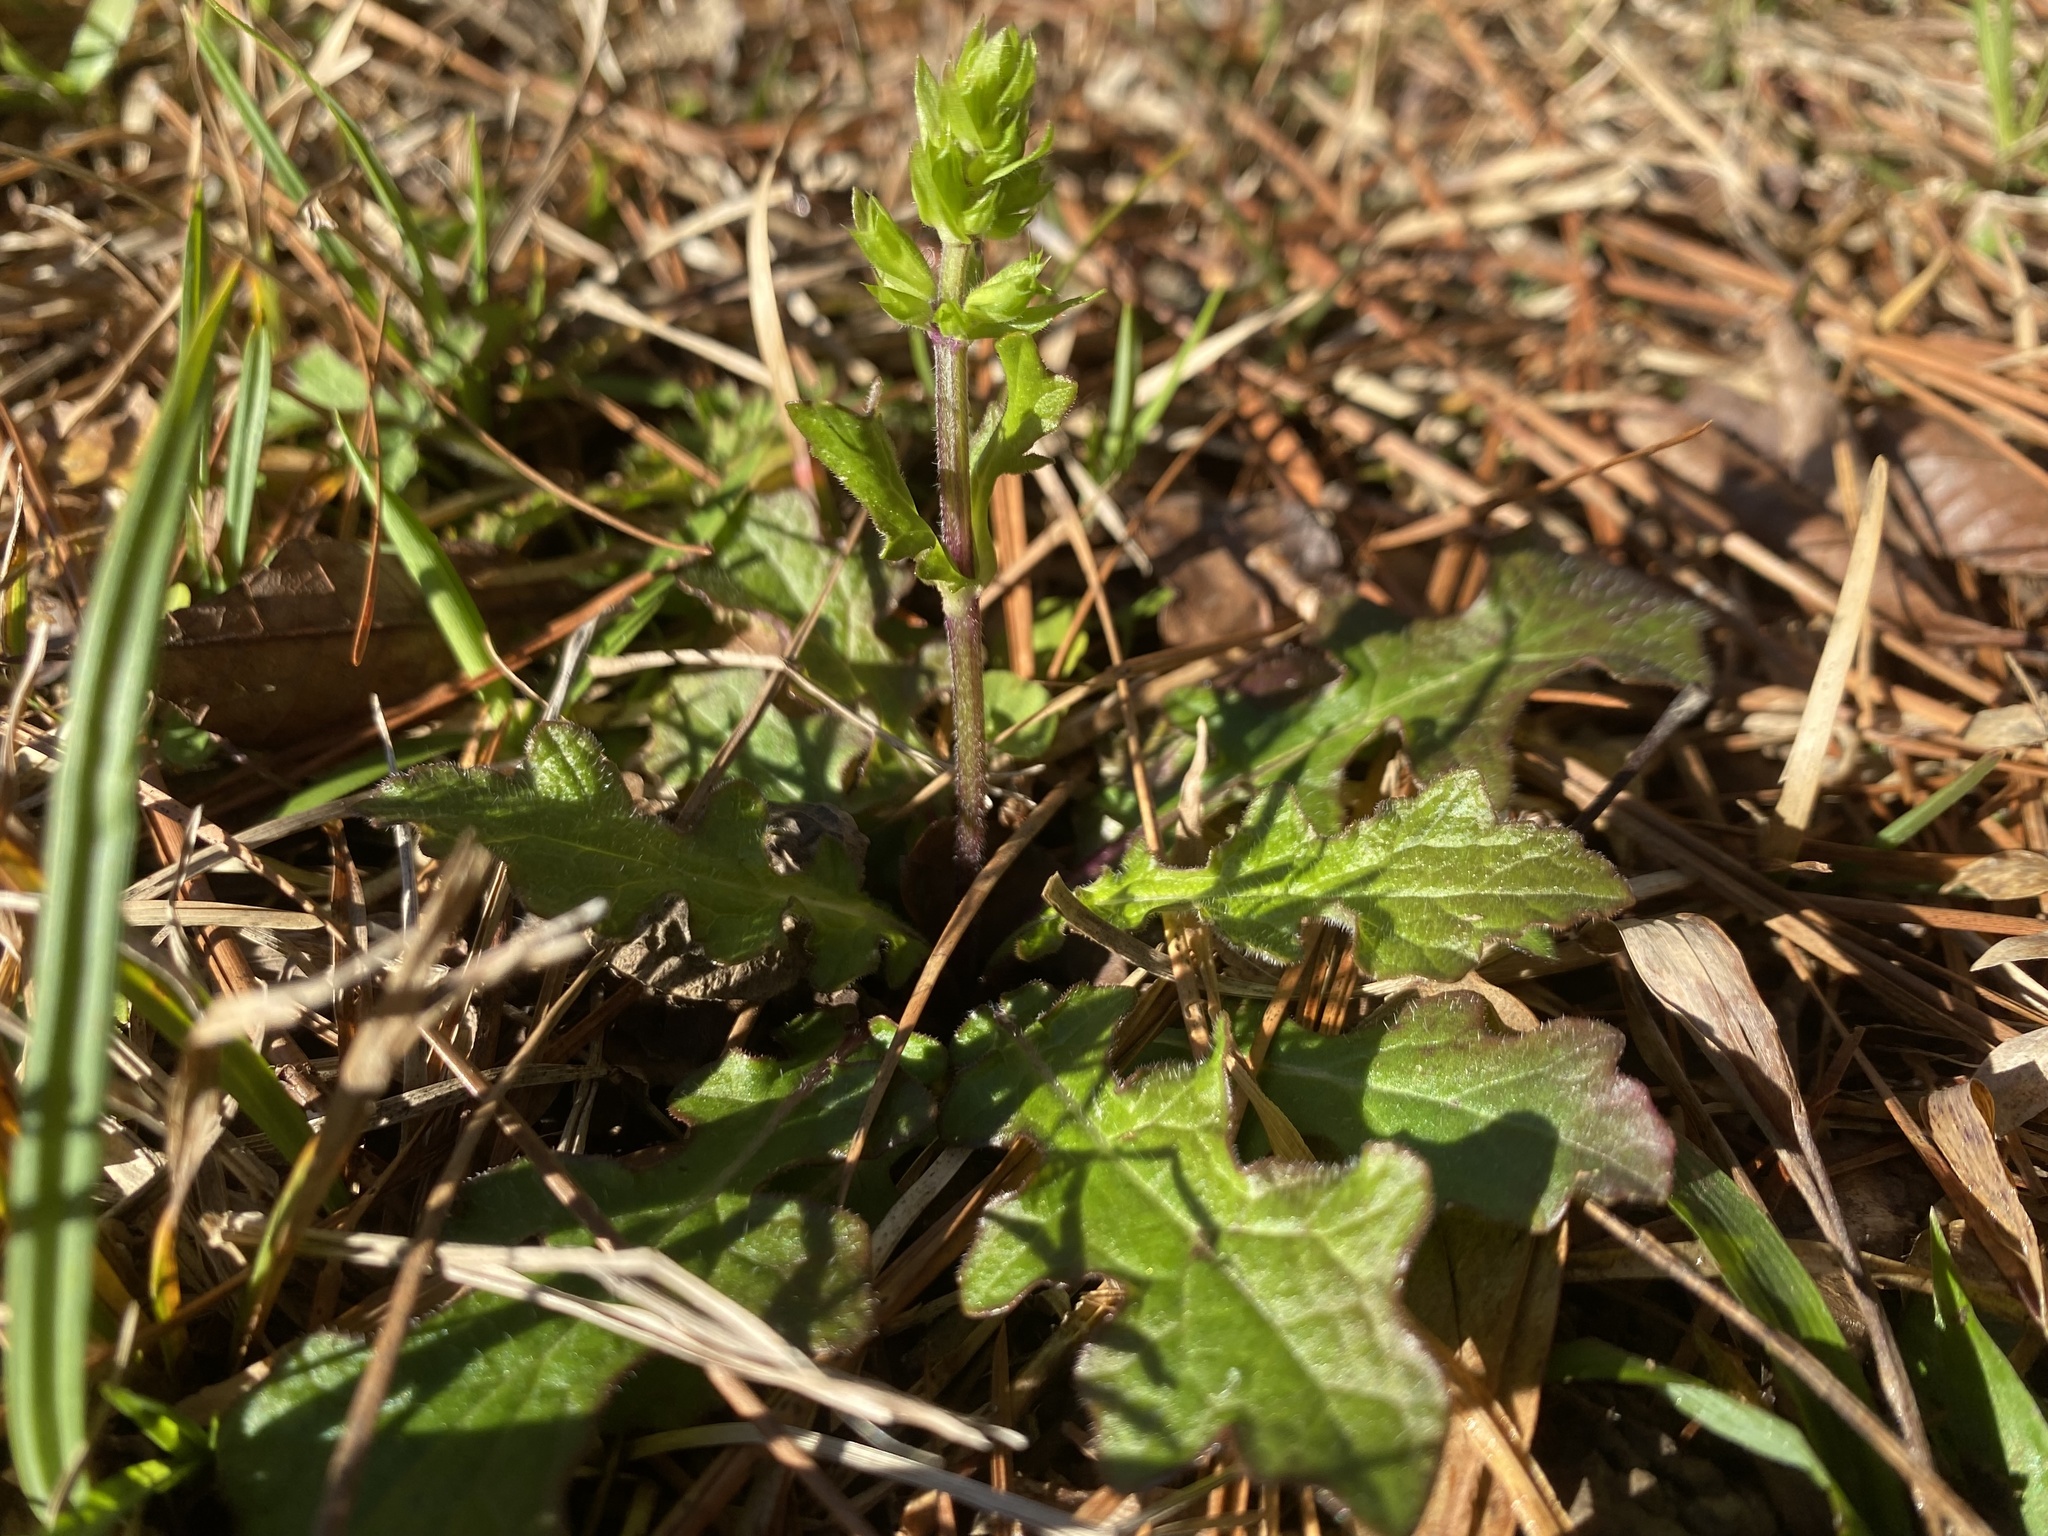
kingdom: Plantae
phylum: Tracheophyta
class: Magnoliopsida
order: Lamiales
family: Lamiaceae
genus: Salvia
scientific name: Salvia lyrata
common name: Cancerweed
